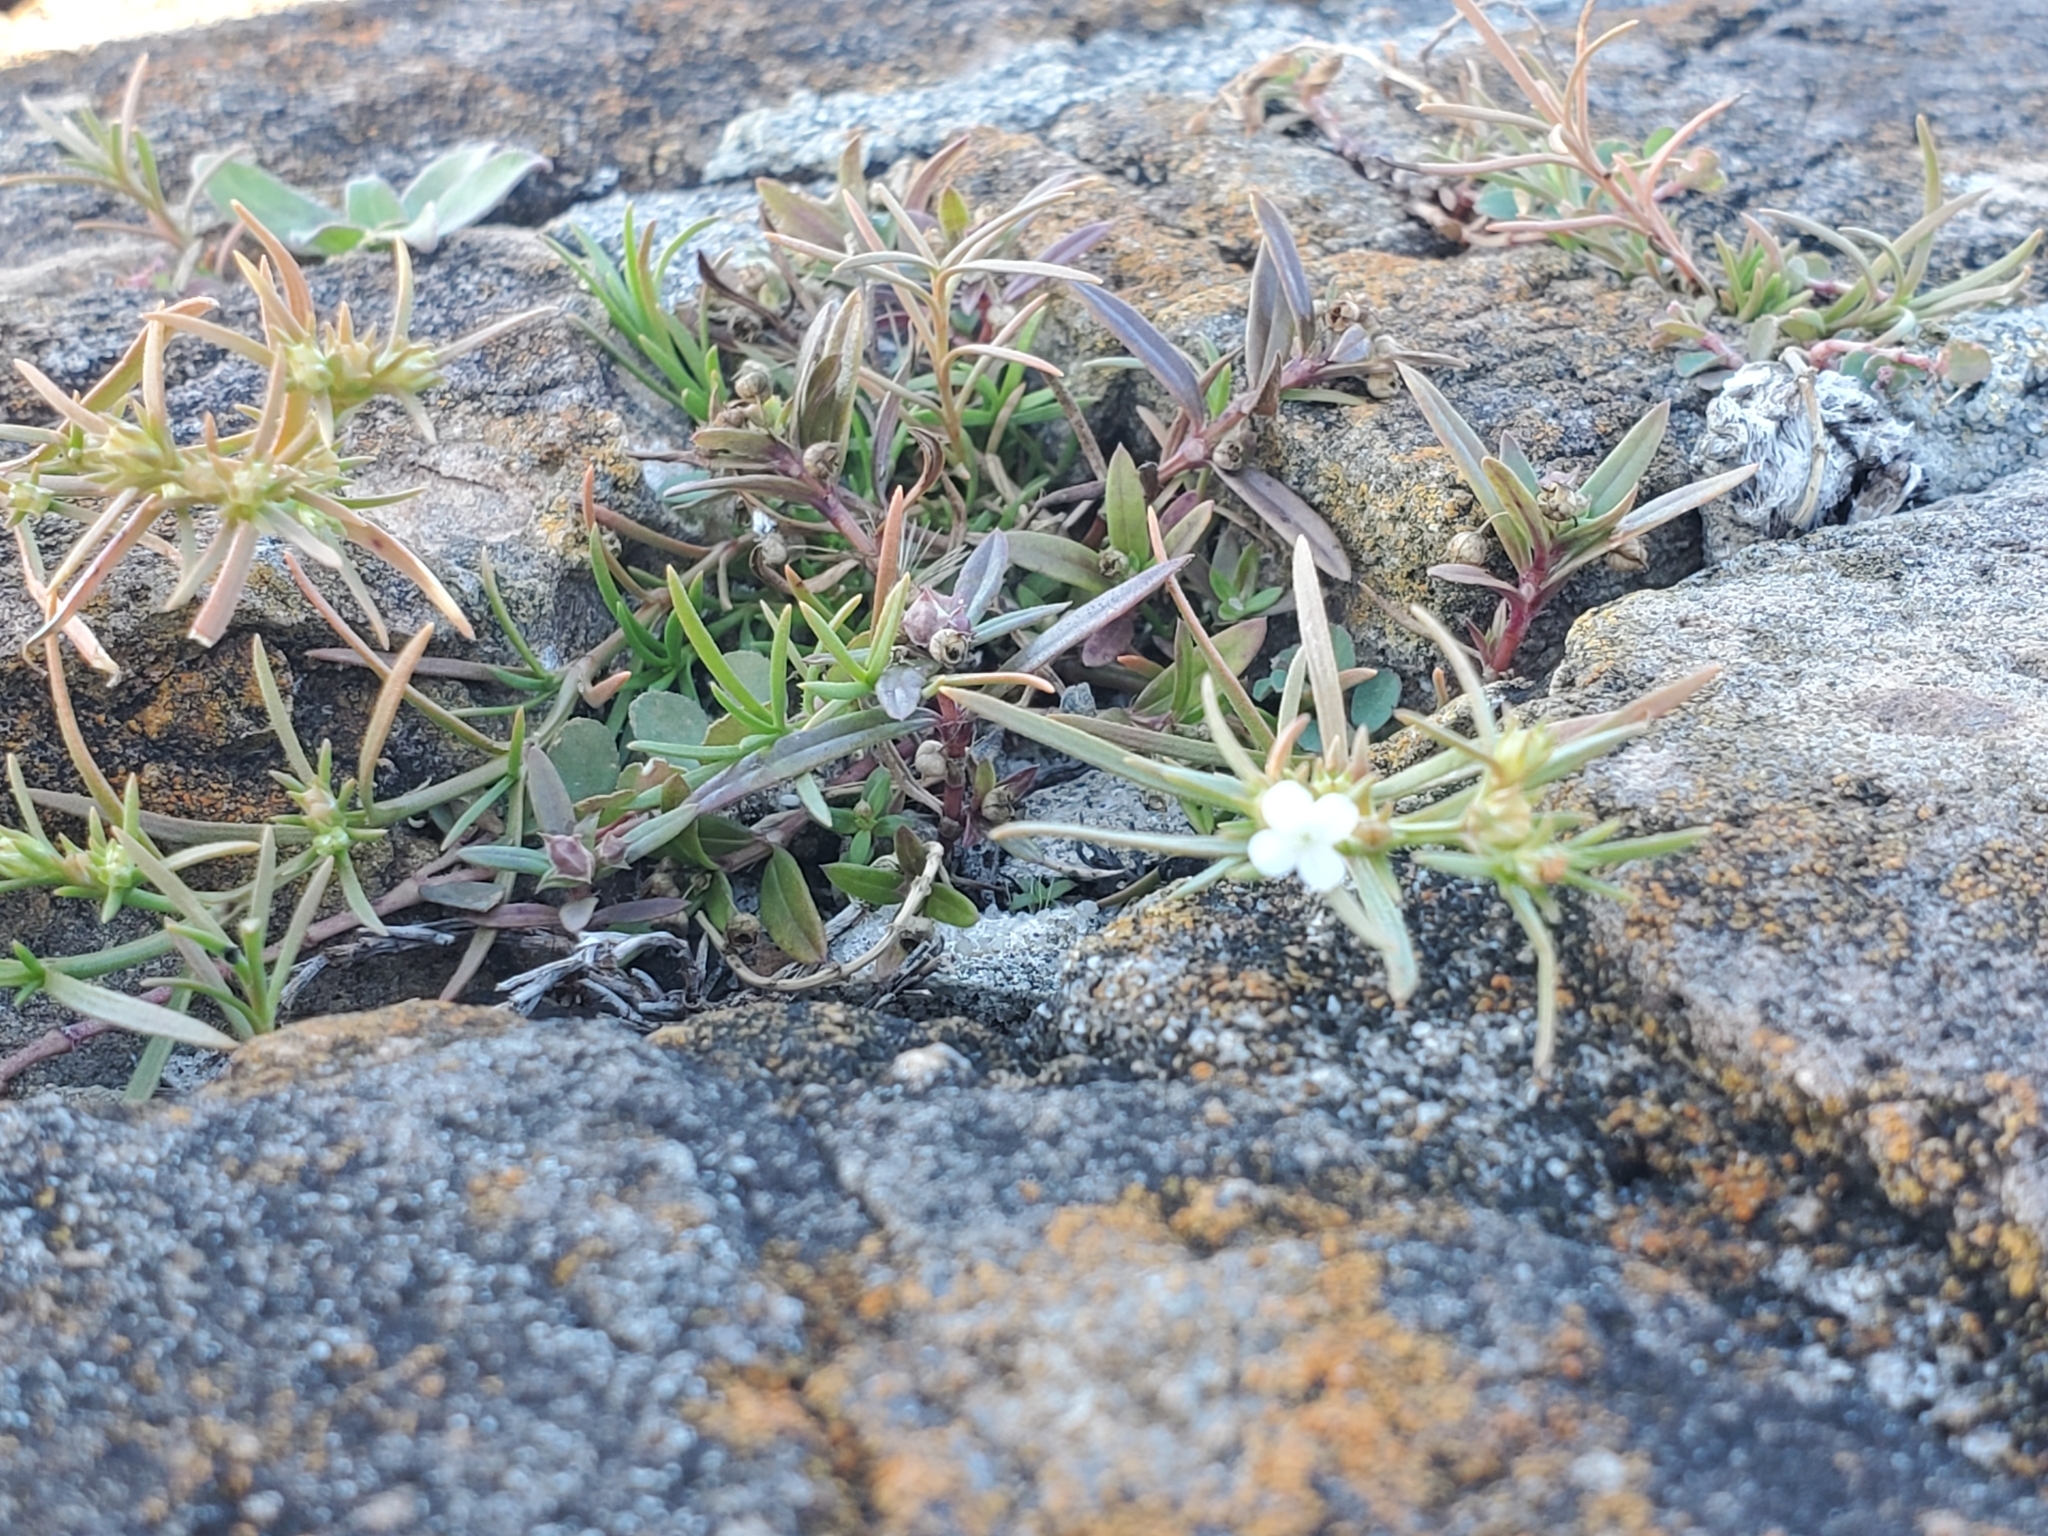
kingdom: Plantae
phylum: Tracheophyta
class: Magnoliopsida
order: Lamiales
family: Tetrachondraceae
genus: Polypremum
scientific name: Polypremum procumbens
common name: Juniper-leaf
